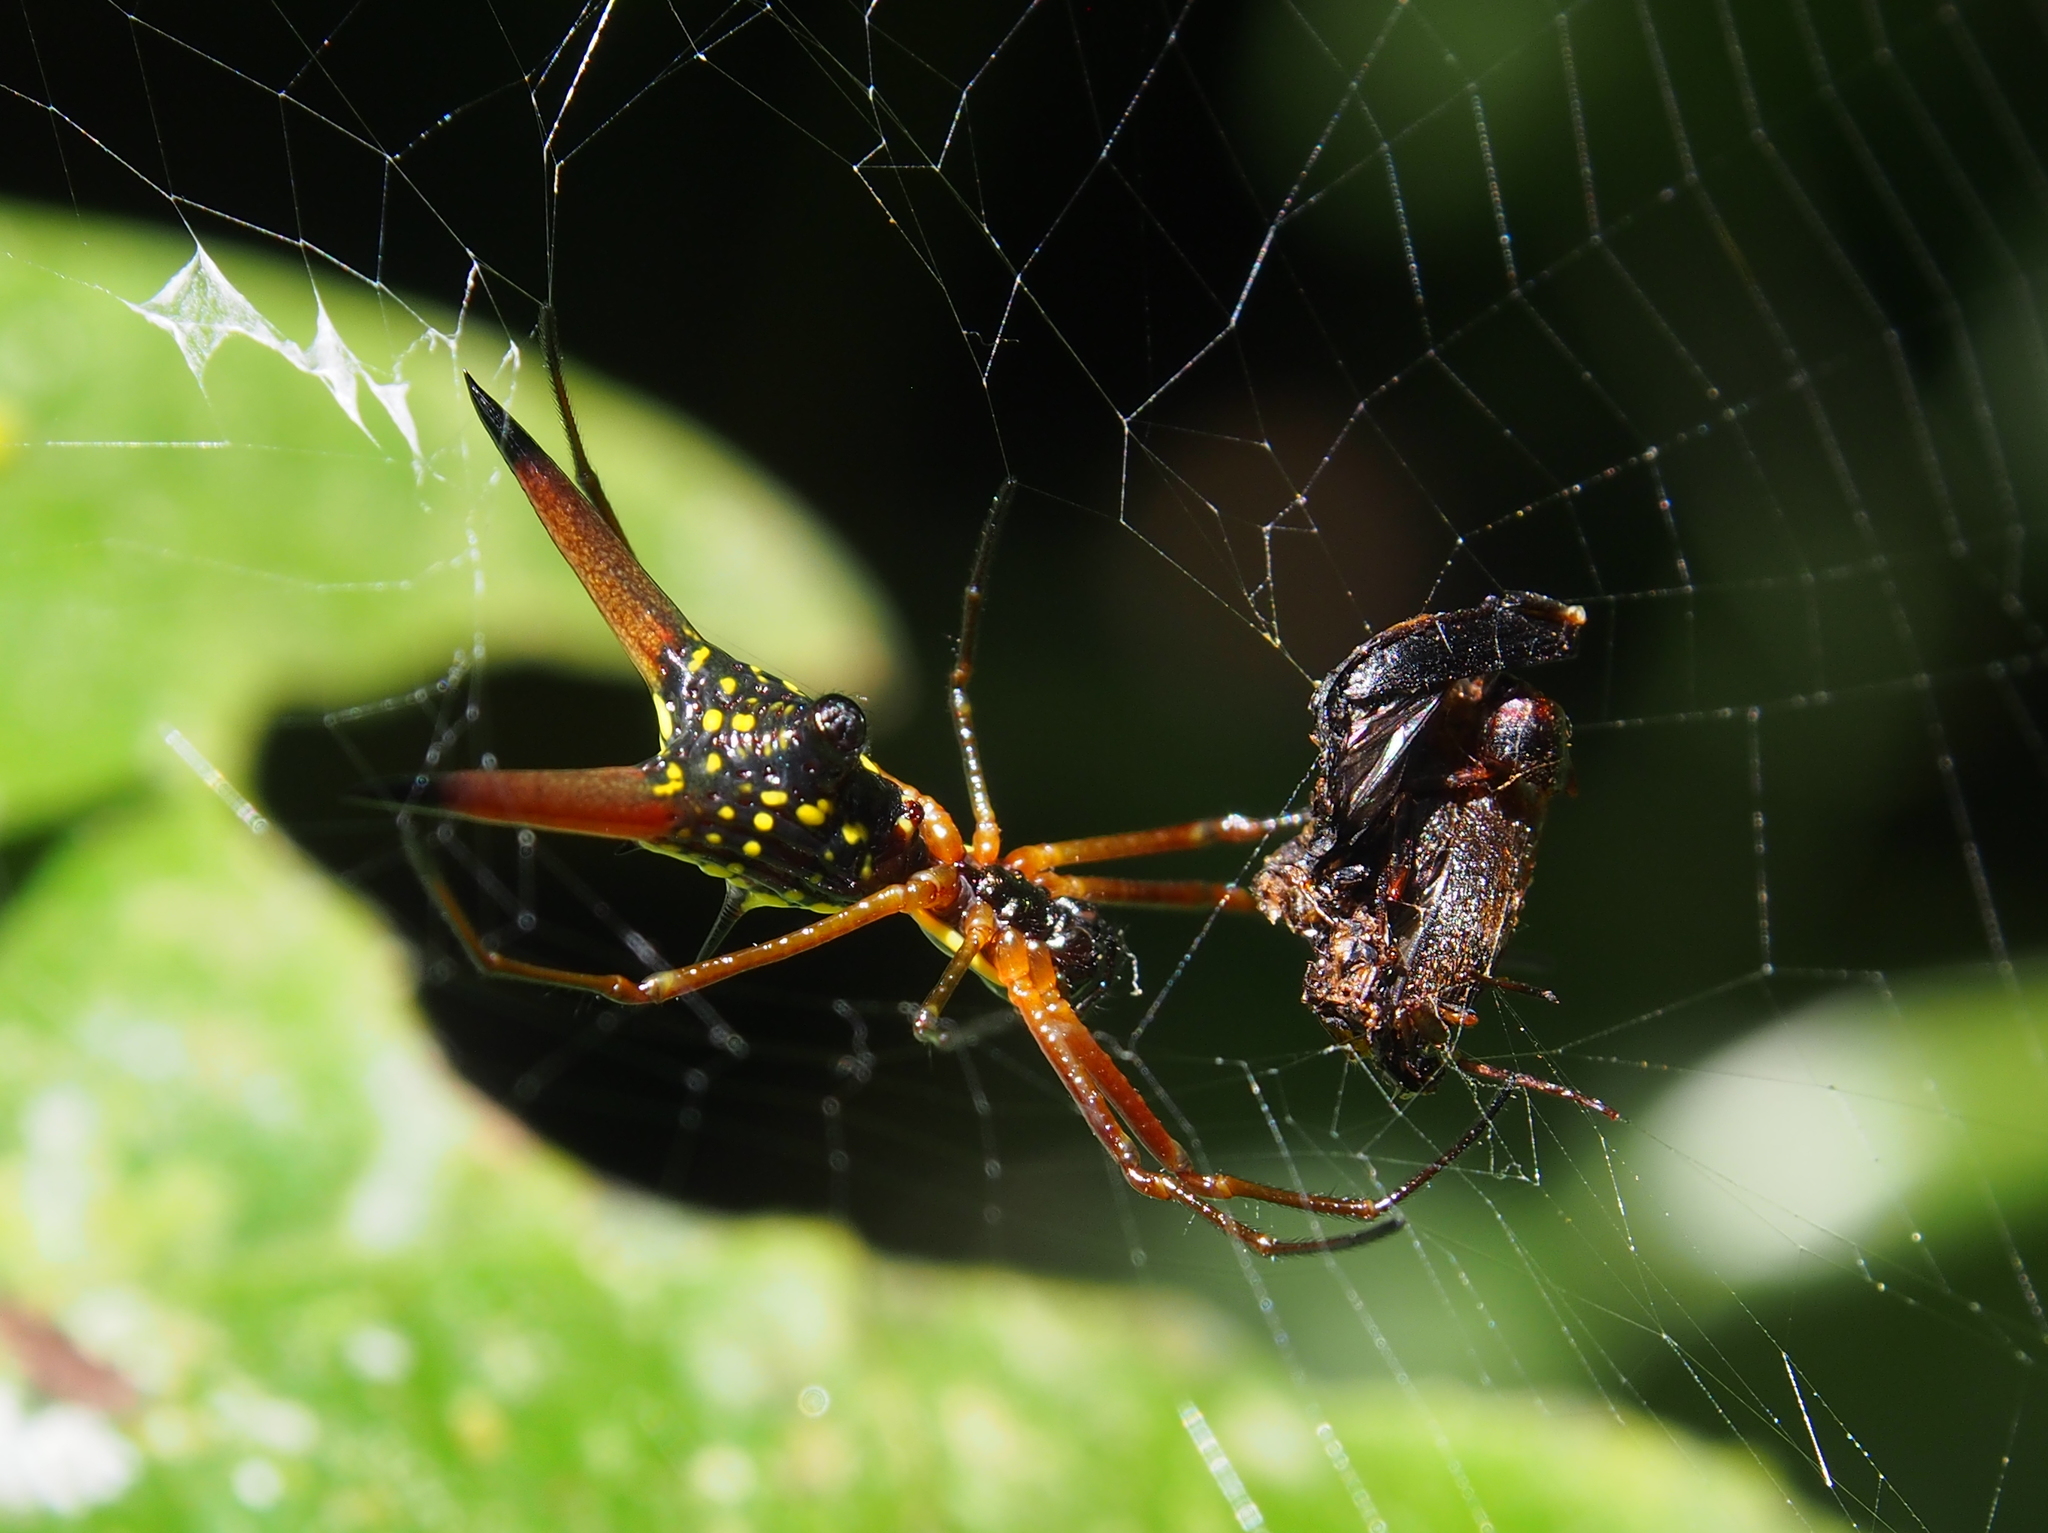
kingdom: Animalia
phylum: Arthropoda
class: Arachnida
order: Araneae
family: Araneidae
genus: Micrathena
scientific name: Micrathena brevipes
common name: Orb weavers
